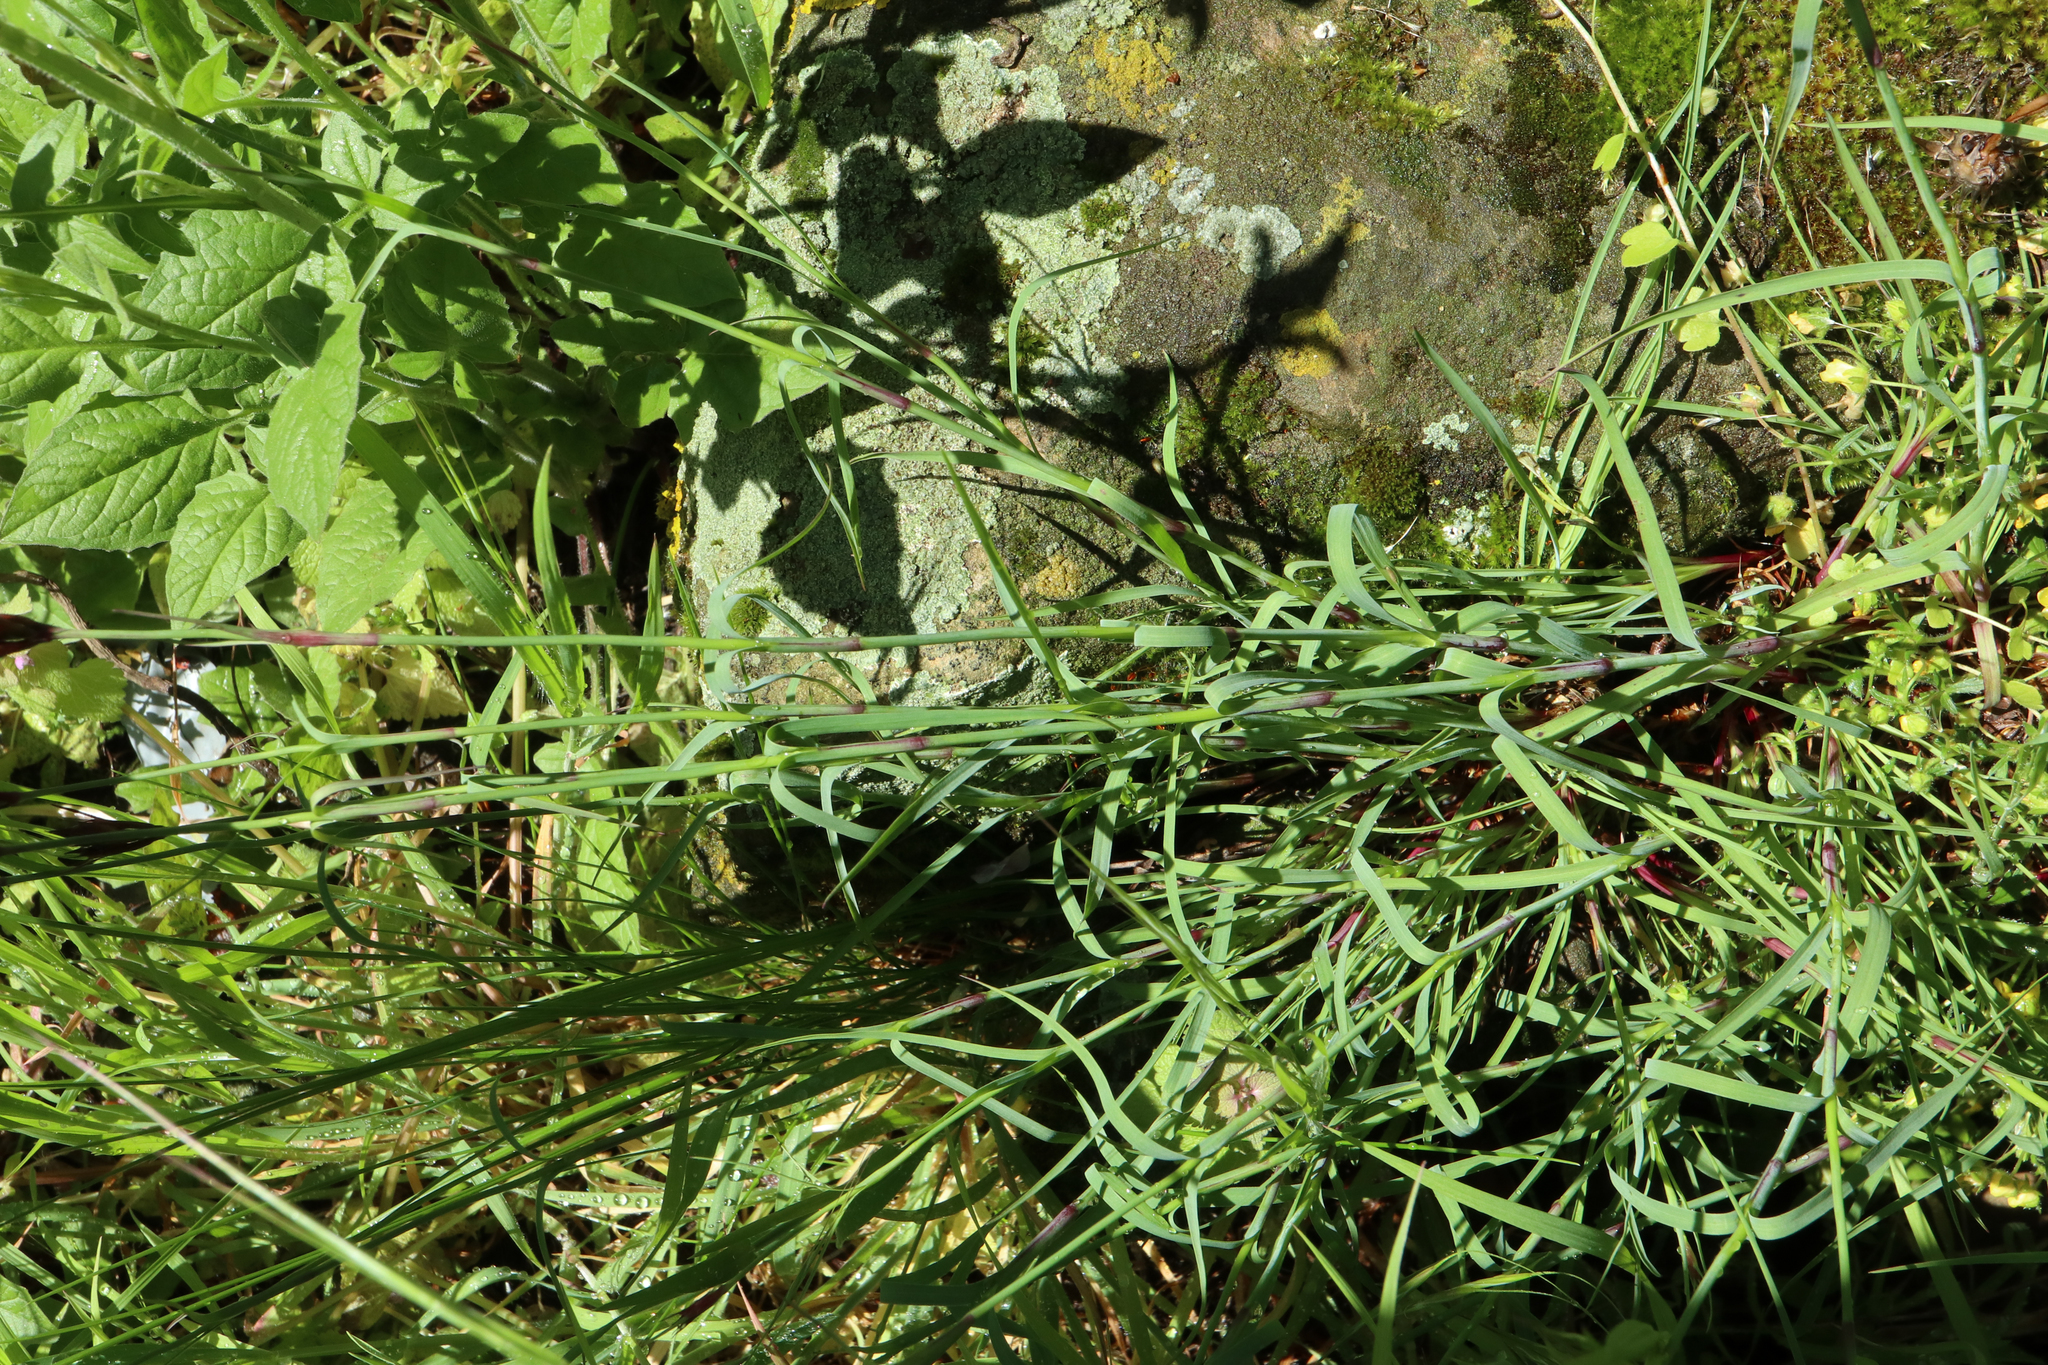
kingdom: Plantae
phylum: Tracheophyta
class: Magnoliopsida
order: Caryophyllales
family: Caryophyllaceae
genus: Dianthus
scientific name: Dianthus carthusianorum
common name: Carthusian pink
